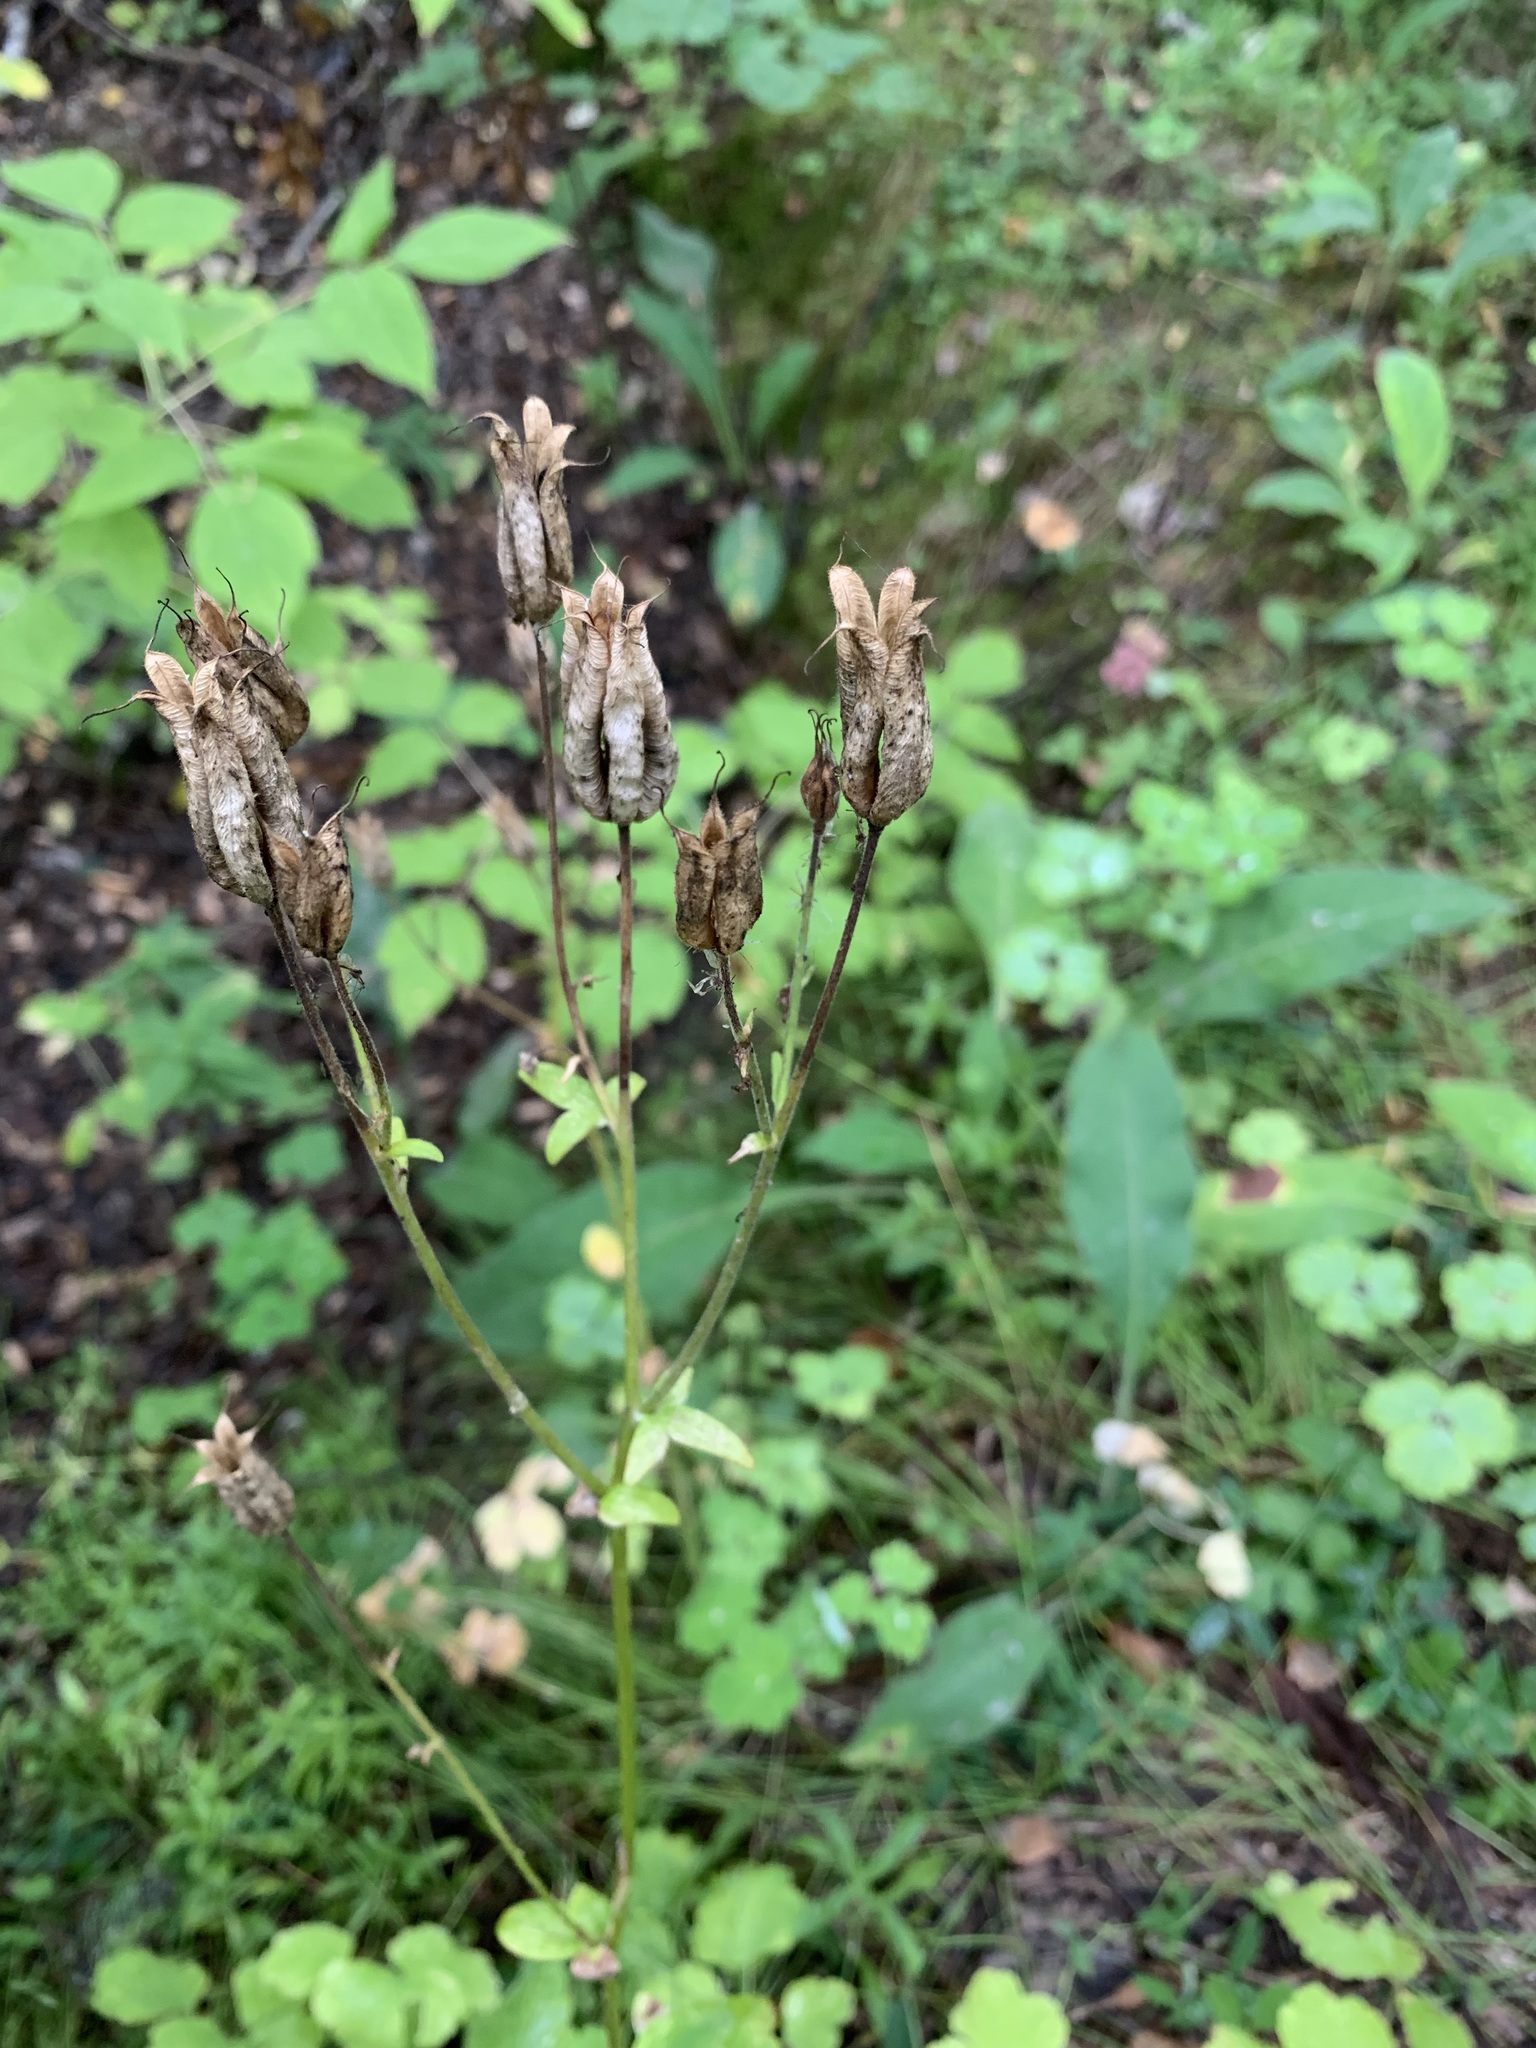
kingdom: Plantae
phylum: Tracheophyta
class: Magnoliopsida
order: Ranunculales
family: Ranunculaceae
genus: Aquilegia
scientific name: Aquilegia vulgaris
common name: Columbine
